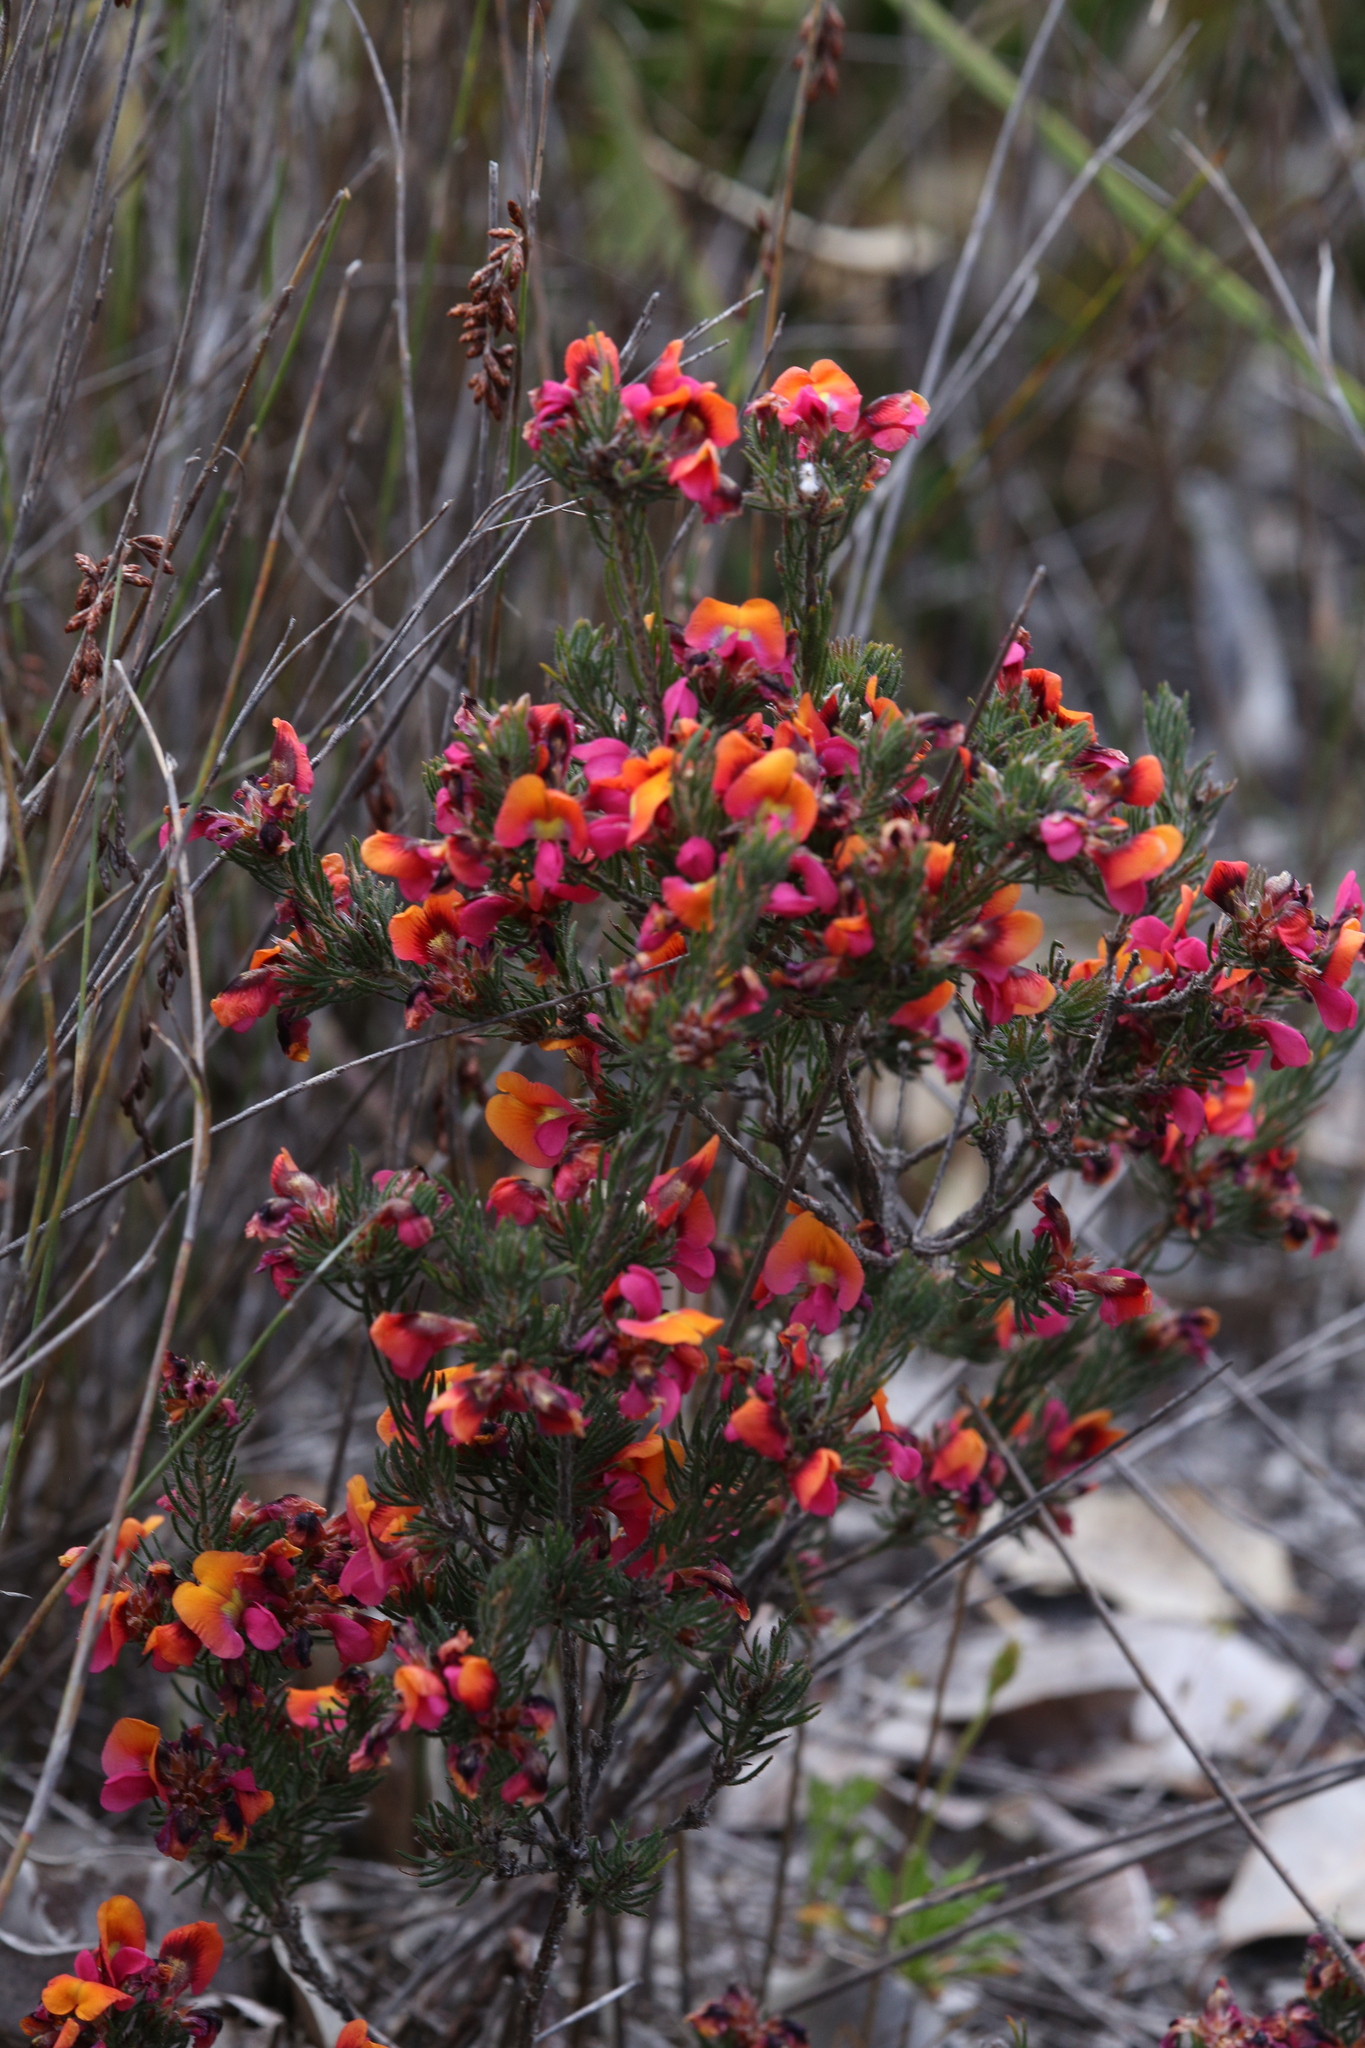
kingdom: Plantae
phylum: Tracheophyta
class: Magnoliopsida
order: Fabales
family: Fabaceae
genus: Pultenaea
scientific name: Pultenaea radiata
